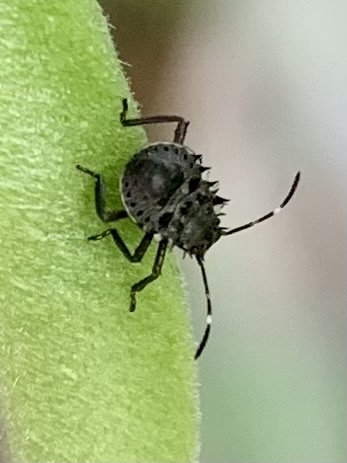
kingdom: Animalia
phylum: Arthropoda
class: Insecta
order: Hemiptera
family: Pentatomidae
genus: Halyomorpha
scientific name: Halyomorpha halys
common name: Brown marmorated stink bug
